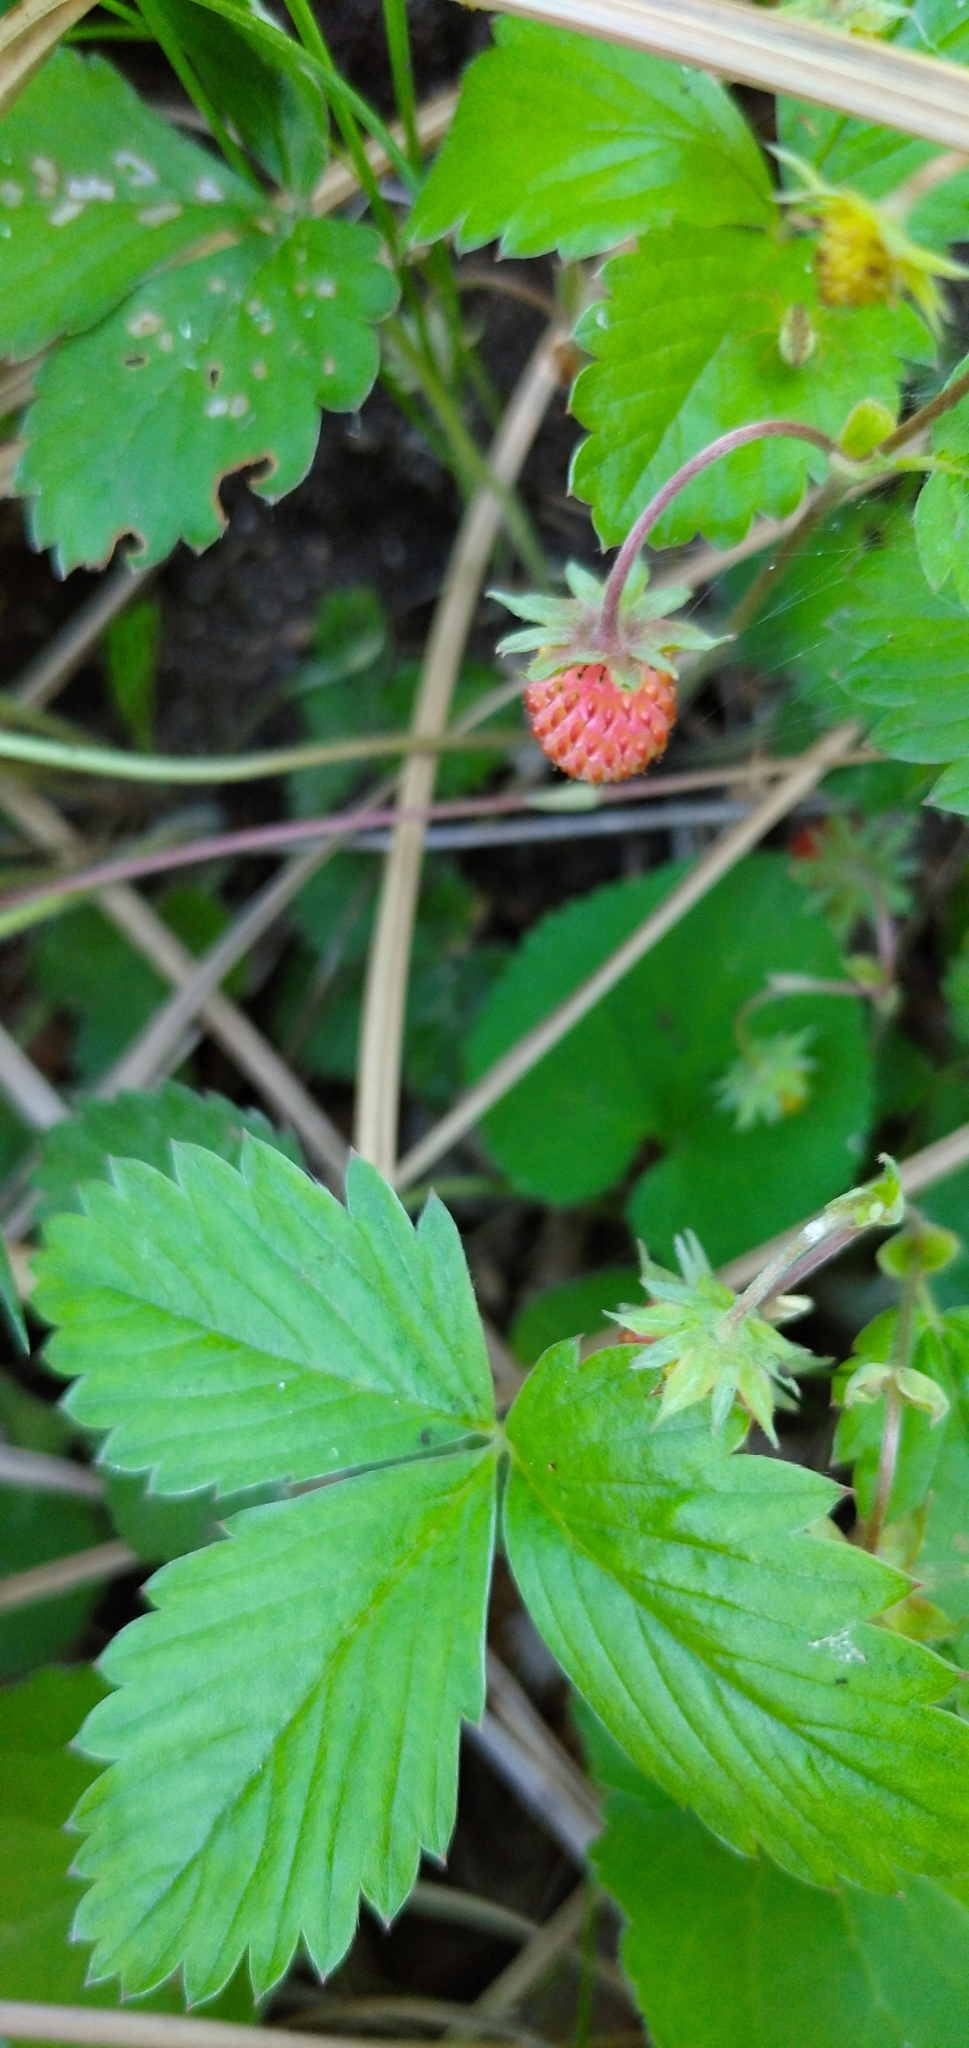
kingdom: Plantae
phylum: Tracheophyta
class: Magnoliopsida
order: Rosales
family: Rosaceae
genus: Fragaria
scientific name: Fragaria vesca
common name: Wild strawberry
